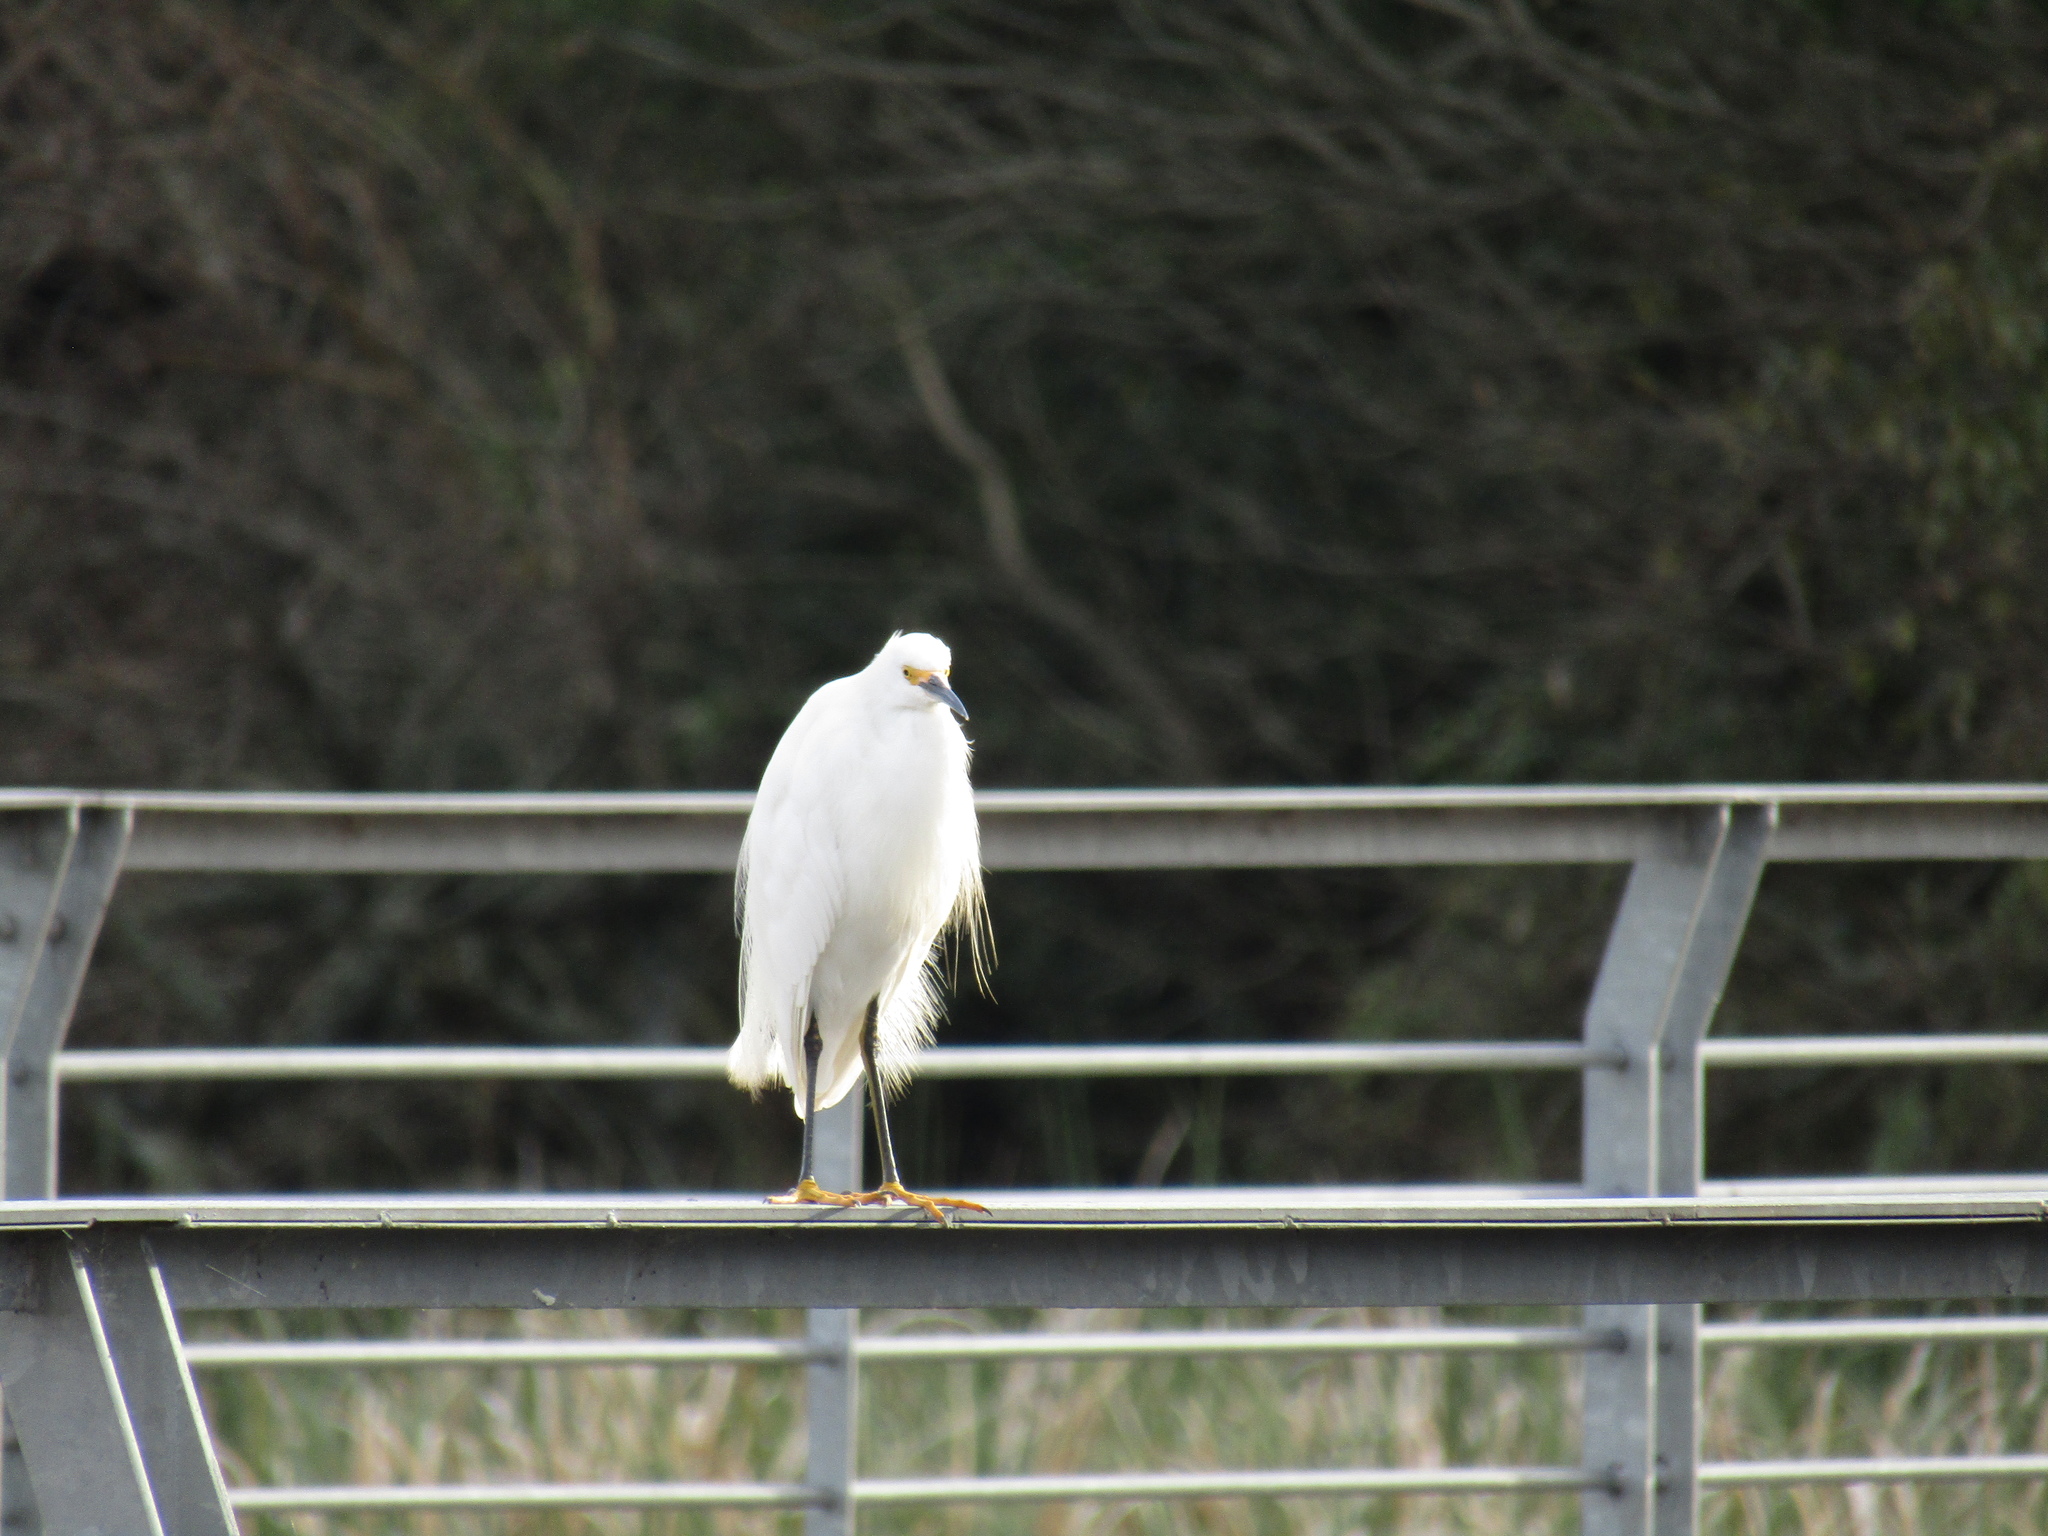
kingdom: Animalia
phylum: Chordata
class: Aves
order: Pelecaniformes
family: Ardeidae
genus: Egretta
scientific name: Egretta thula
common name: Snowy egret
